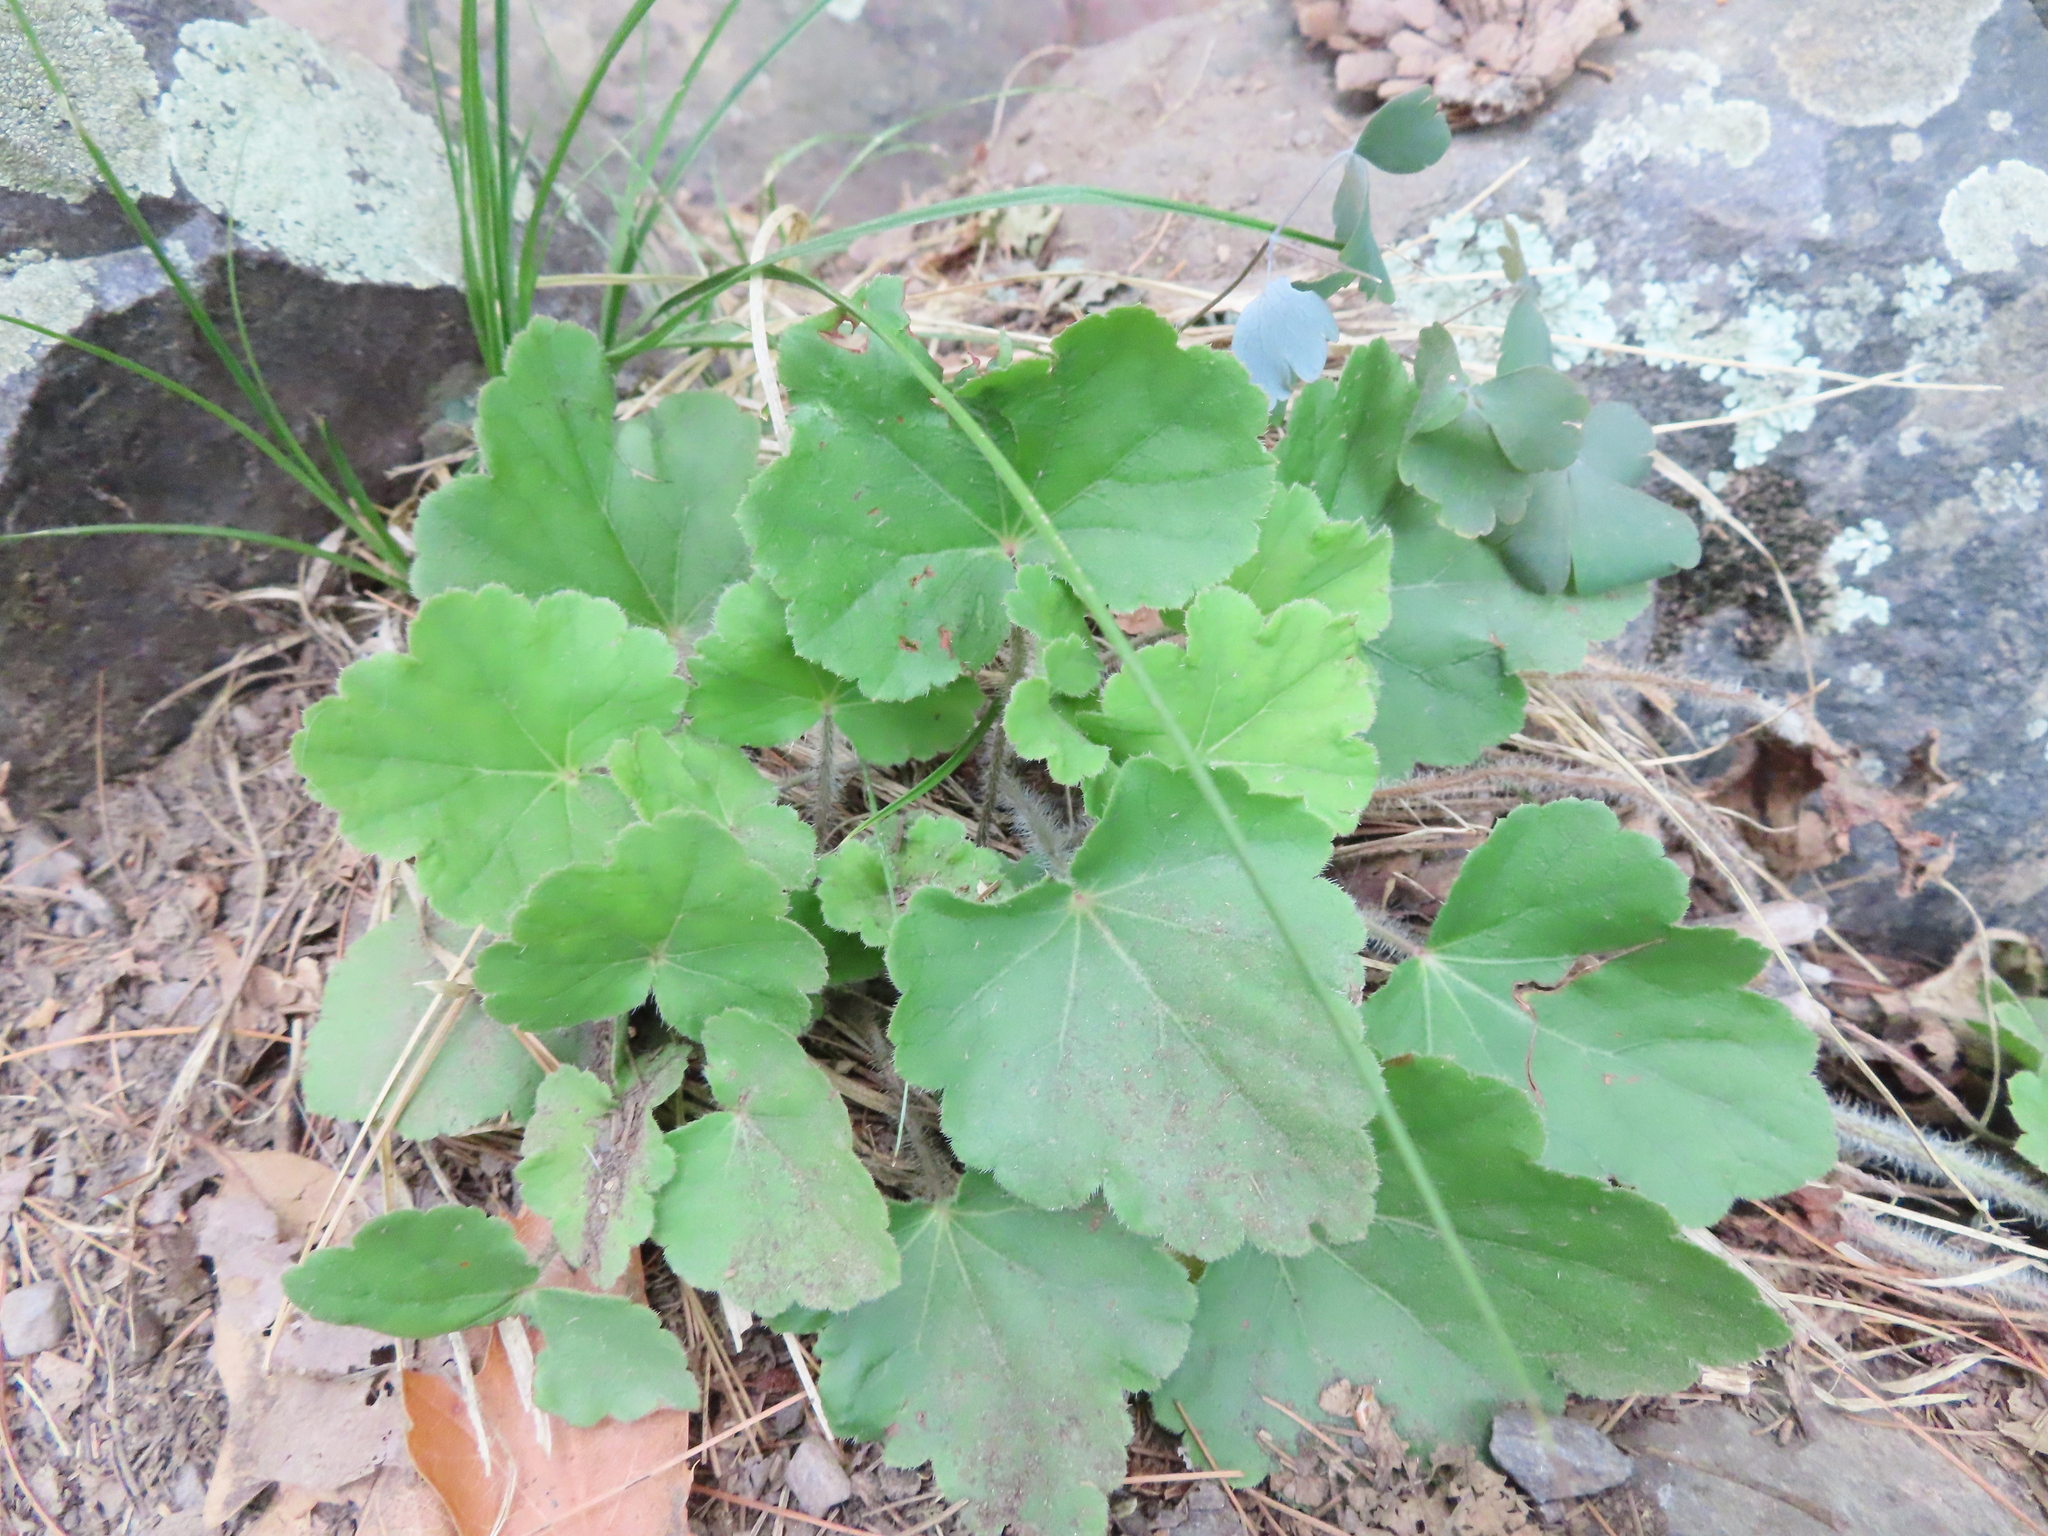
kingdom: Plantae
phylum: Tracheophyta
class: Magnoliopsida
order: Saxifragales
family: Saxifragaceae
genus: Heuchera
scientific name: Heuchera richardsonii
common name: Richardson's alumroot
